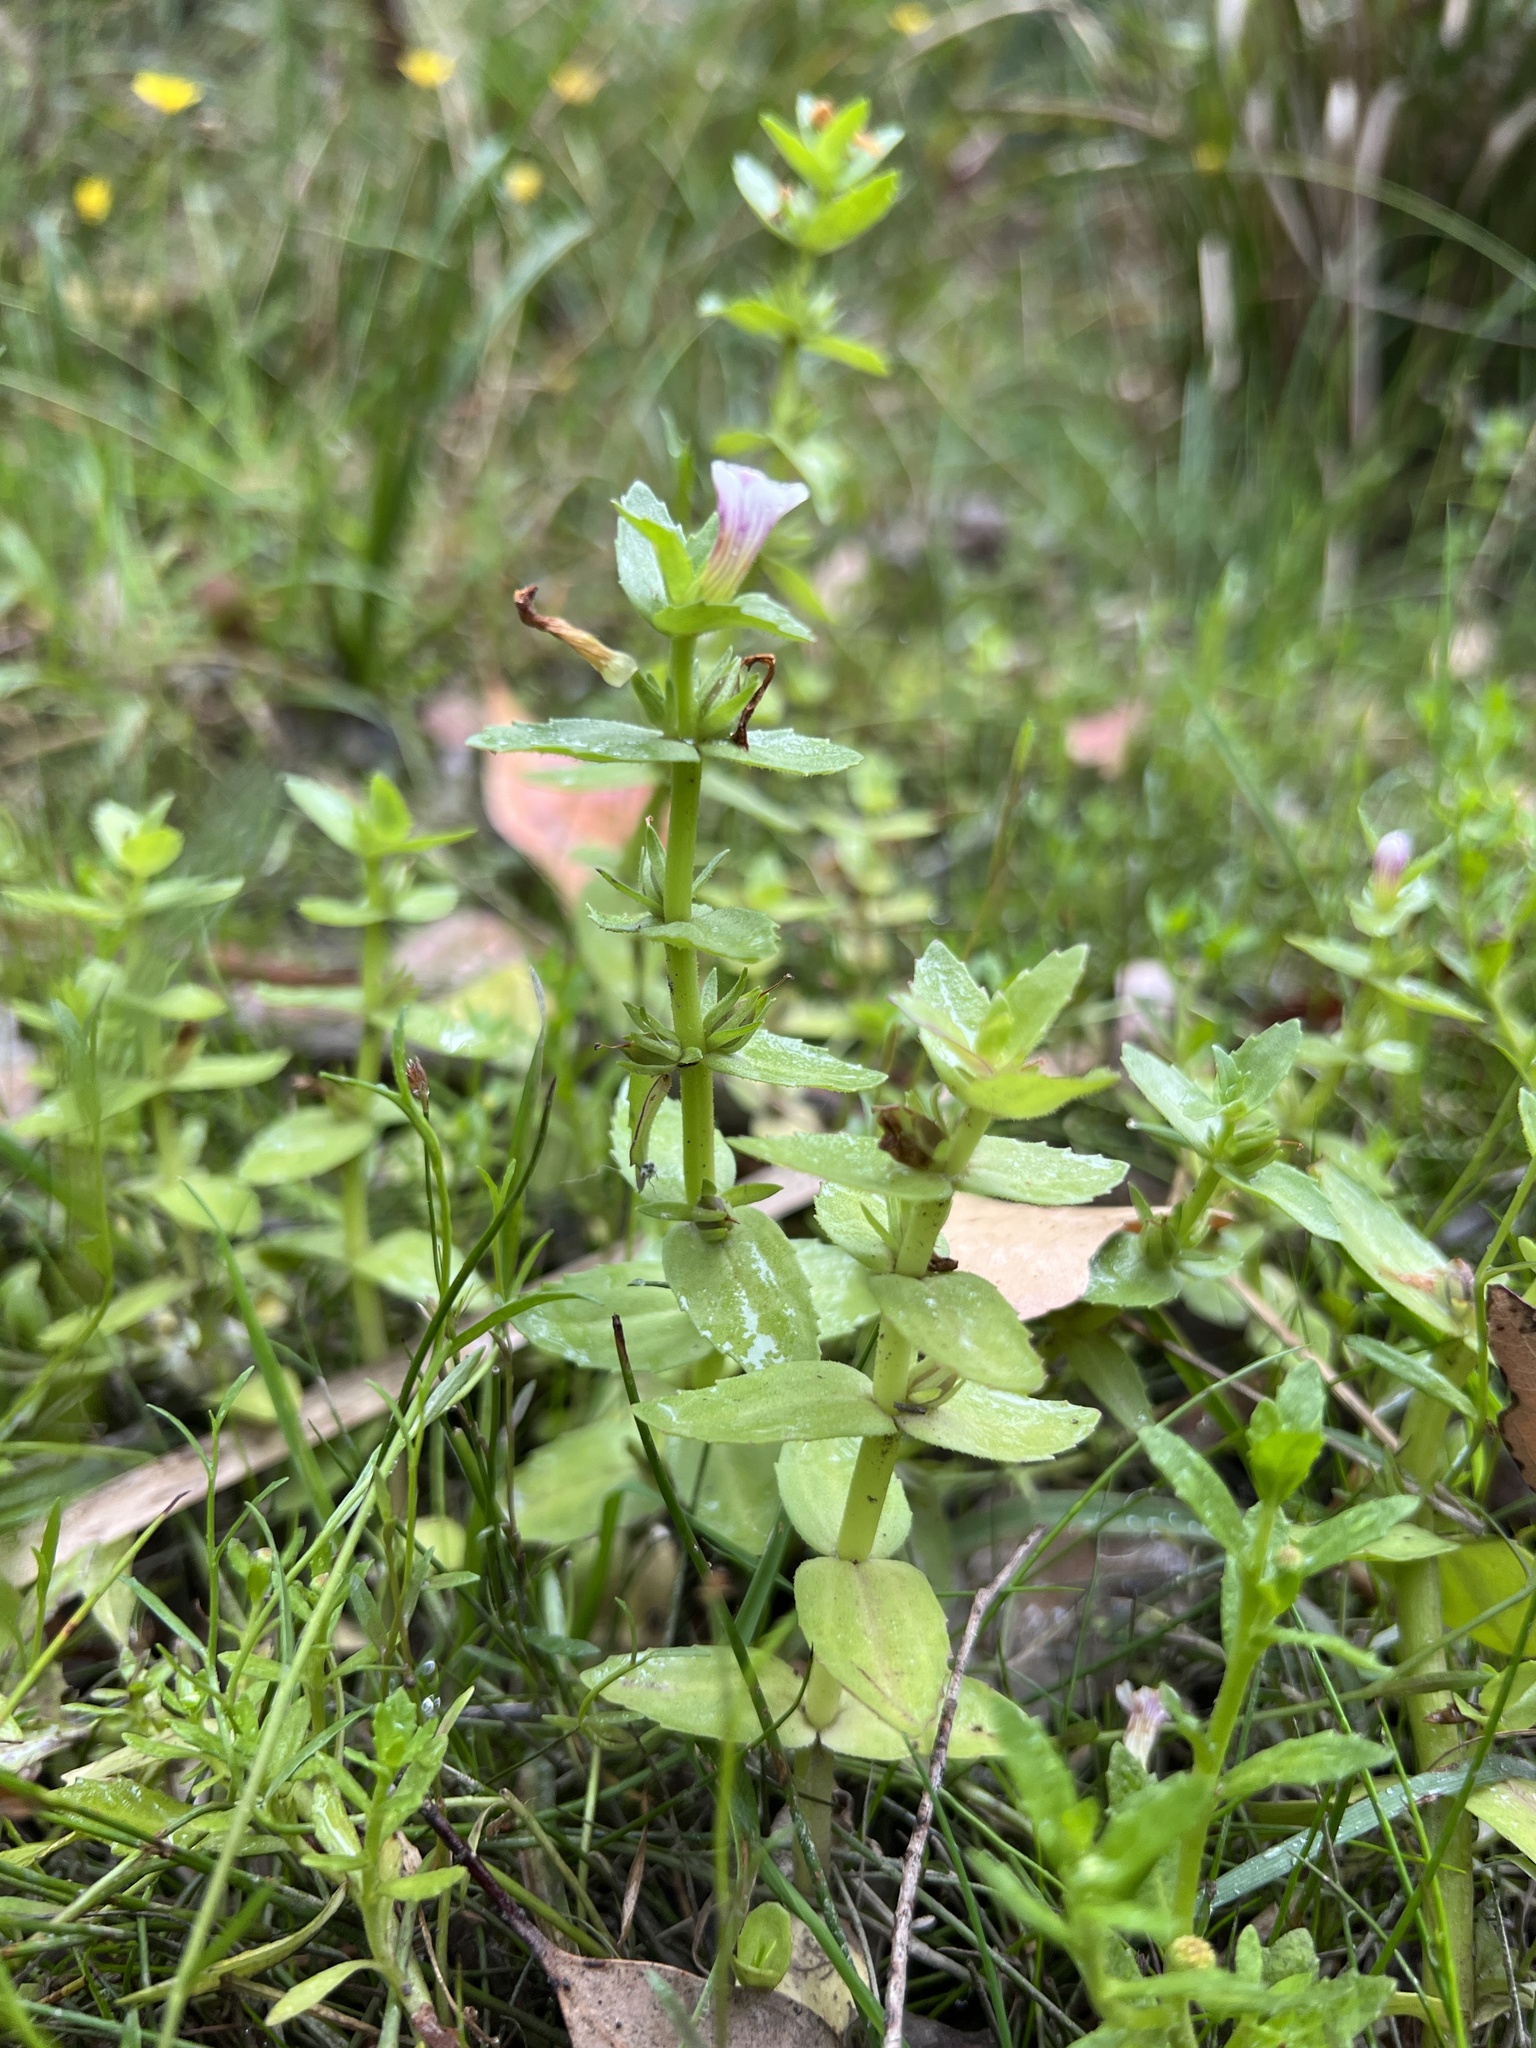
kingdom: Plantae
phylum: Tracheophyta
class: Magnoliopsida
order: Lamiales
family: Plantaginaceae
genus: Gratiola
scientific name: Gratiola peruviana
